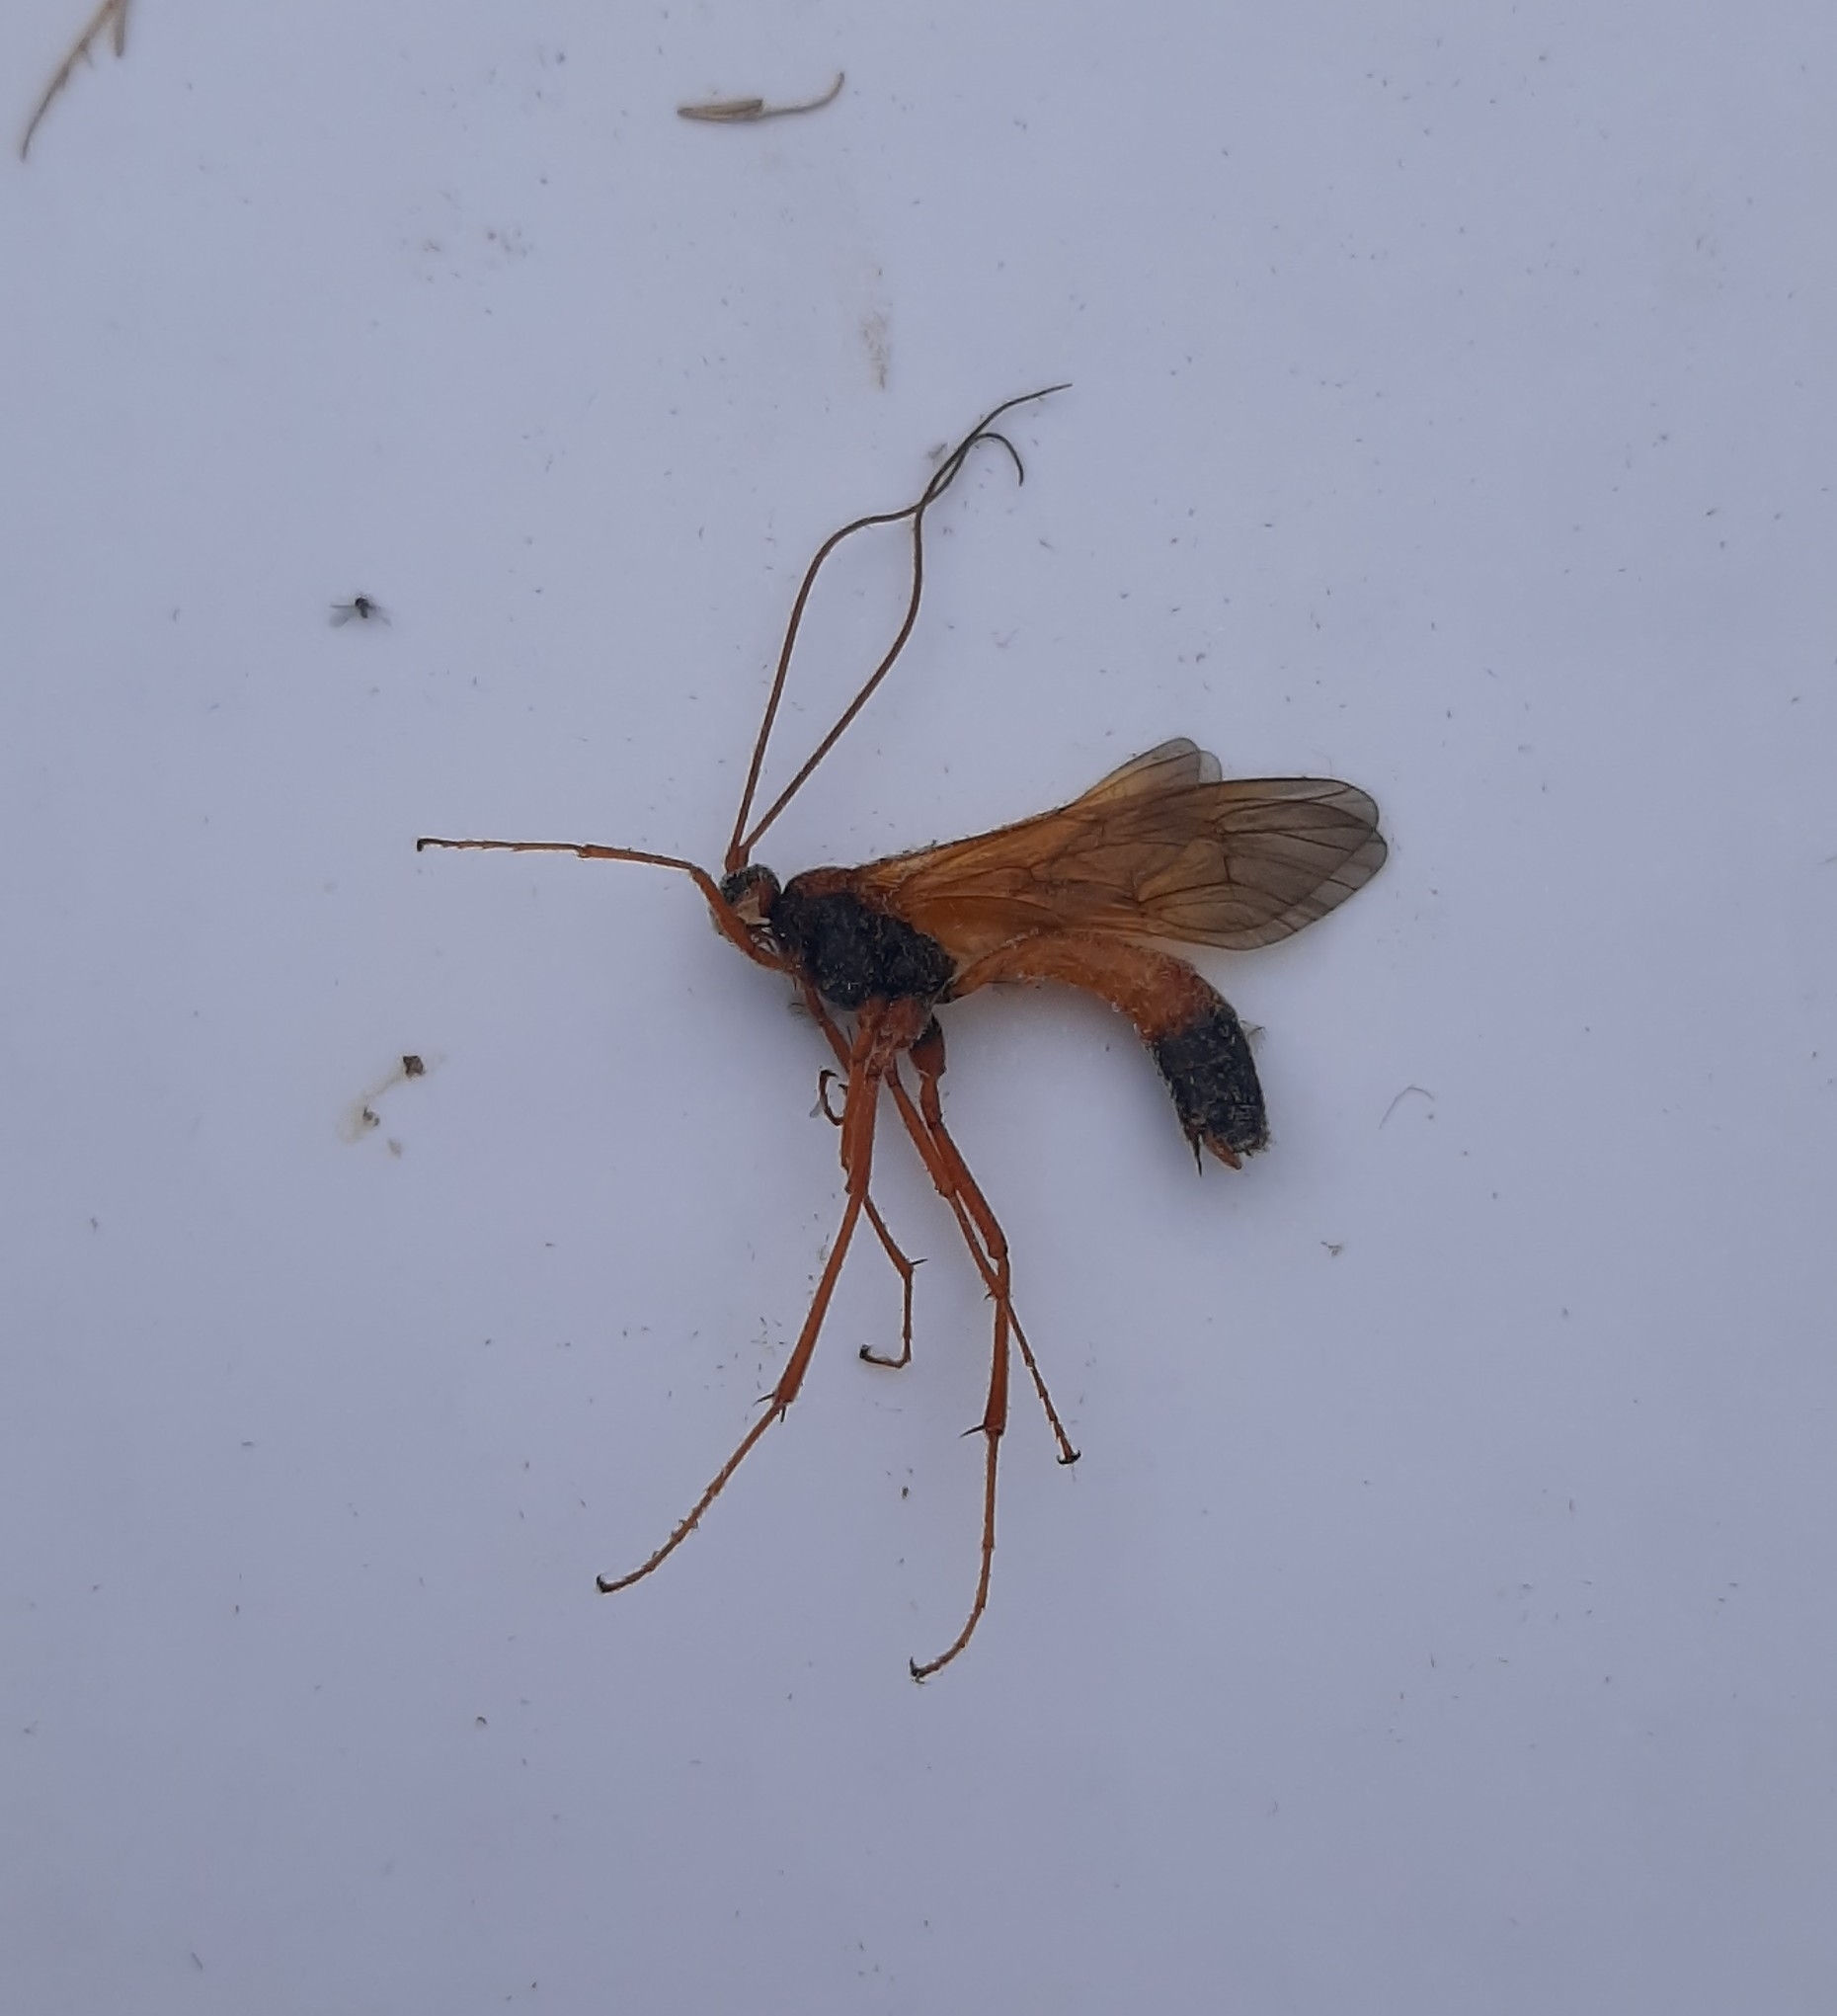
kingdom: Animalia
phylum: Arthropoda
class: Insecta
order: Hymenoptera
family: Ichneumonidae
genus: Opheltes
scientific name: Opheltes glaucopterus
